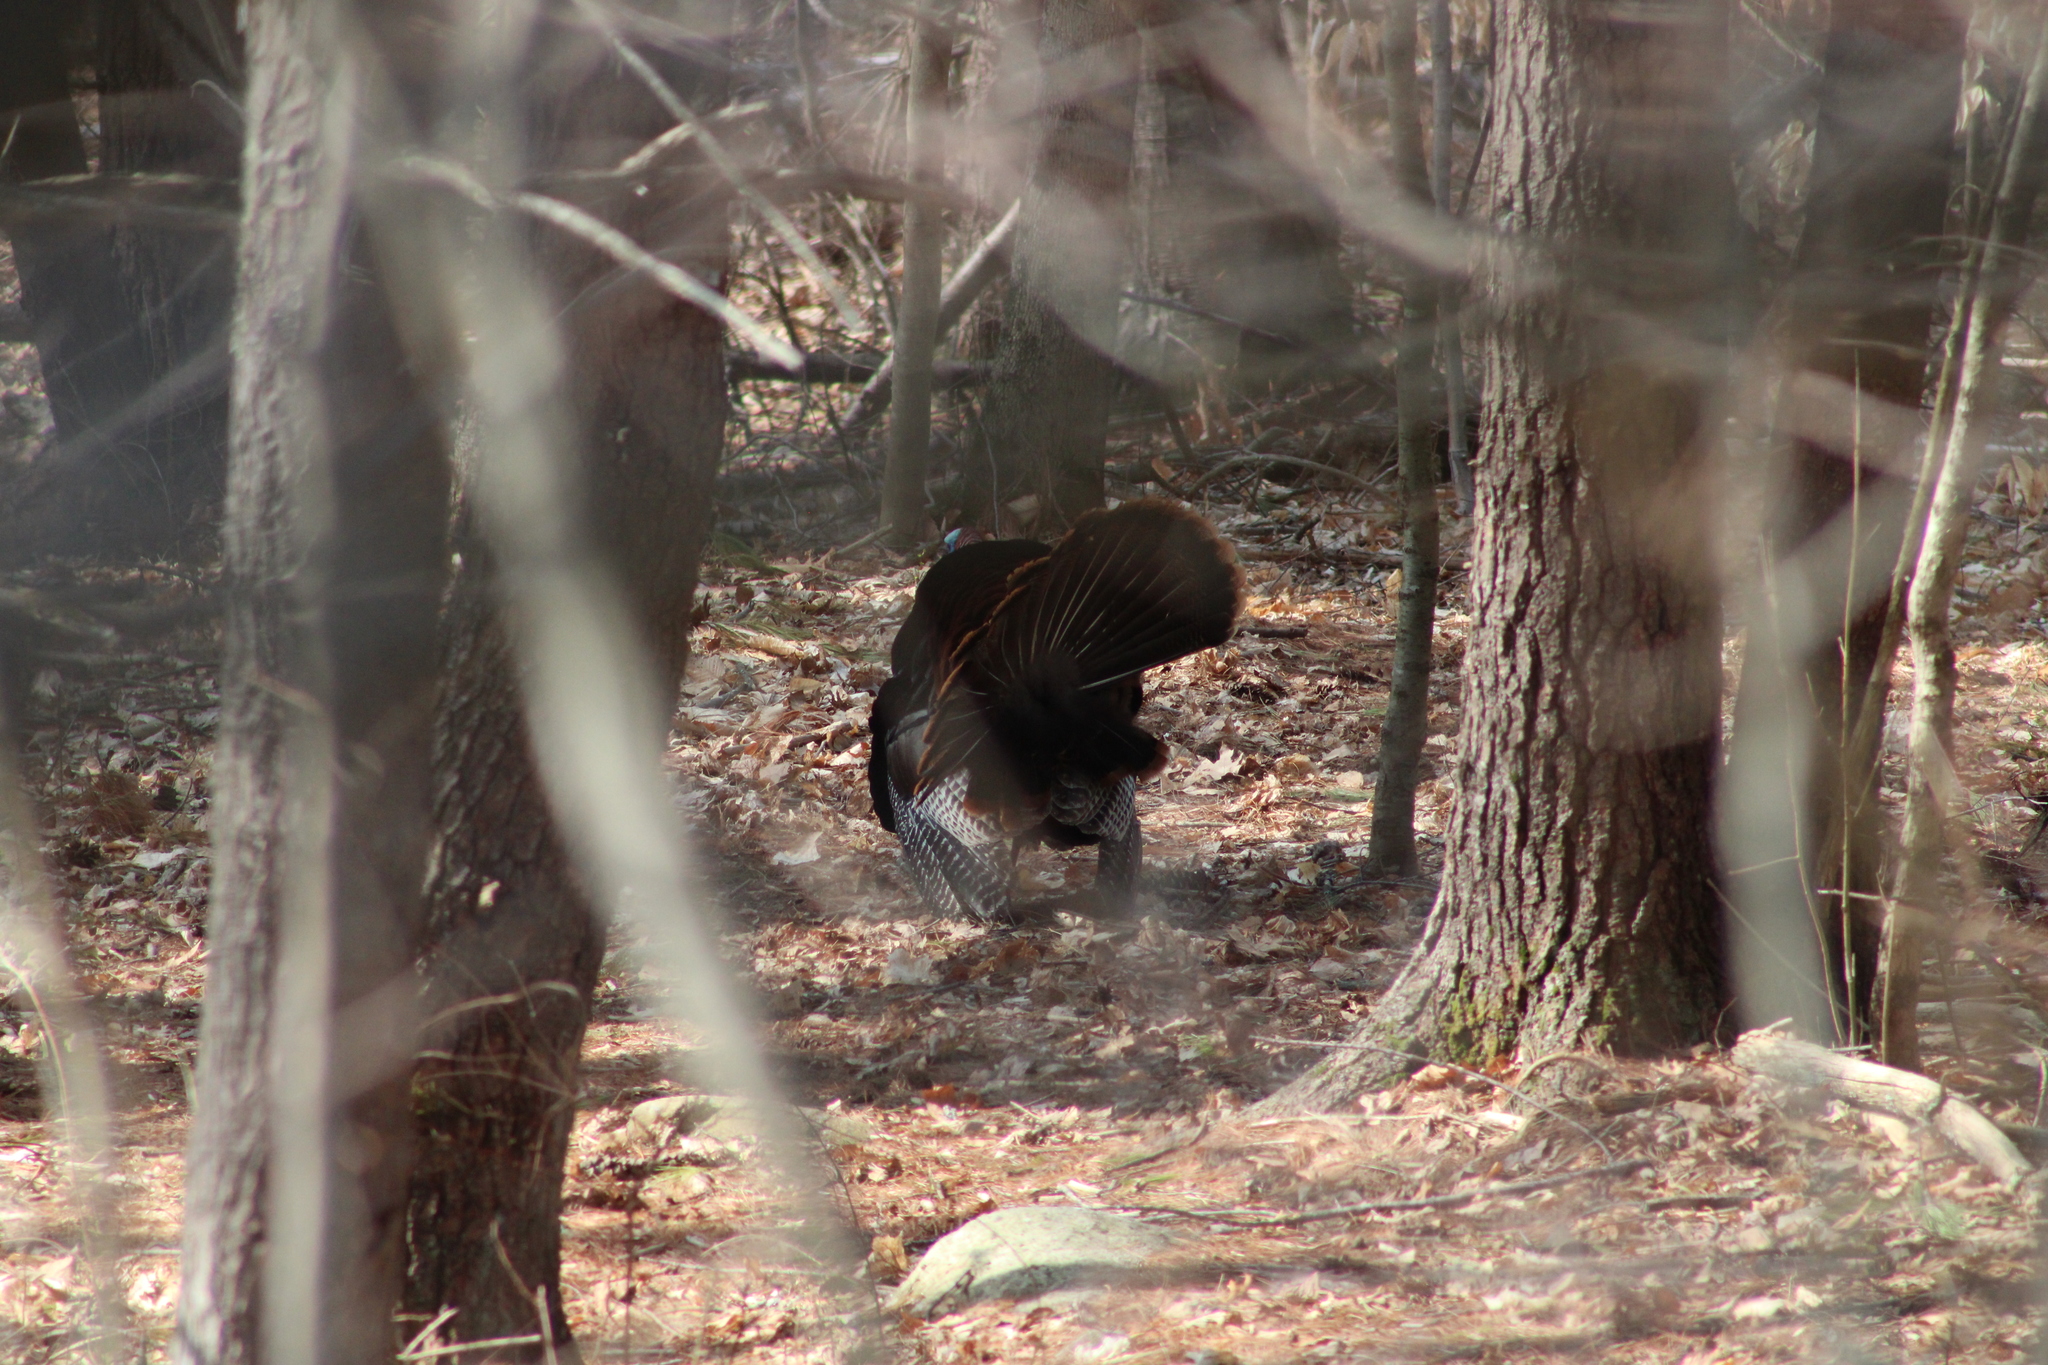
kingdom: Animalia
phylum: Chordata
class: Aves
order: Galliformes
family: Phasianidae
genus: Meleagris
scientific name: Meleagris gallopavo
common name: Wild turkey
